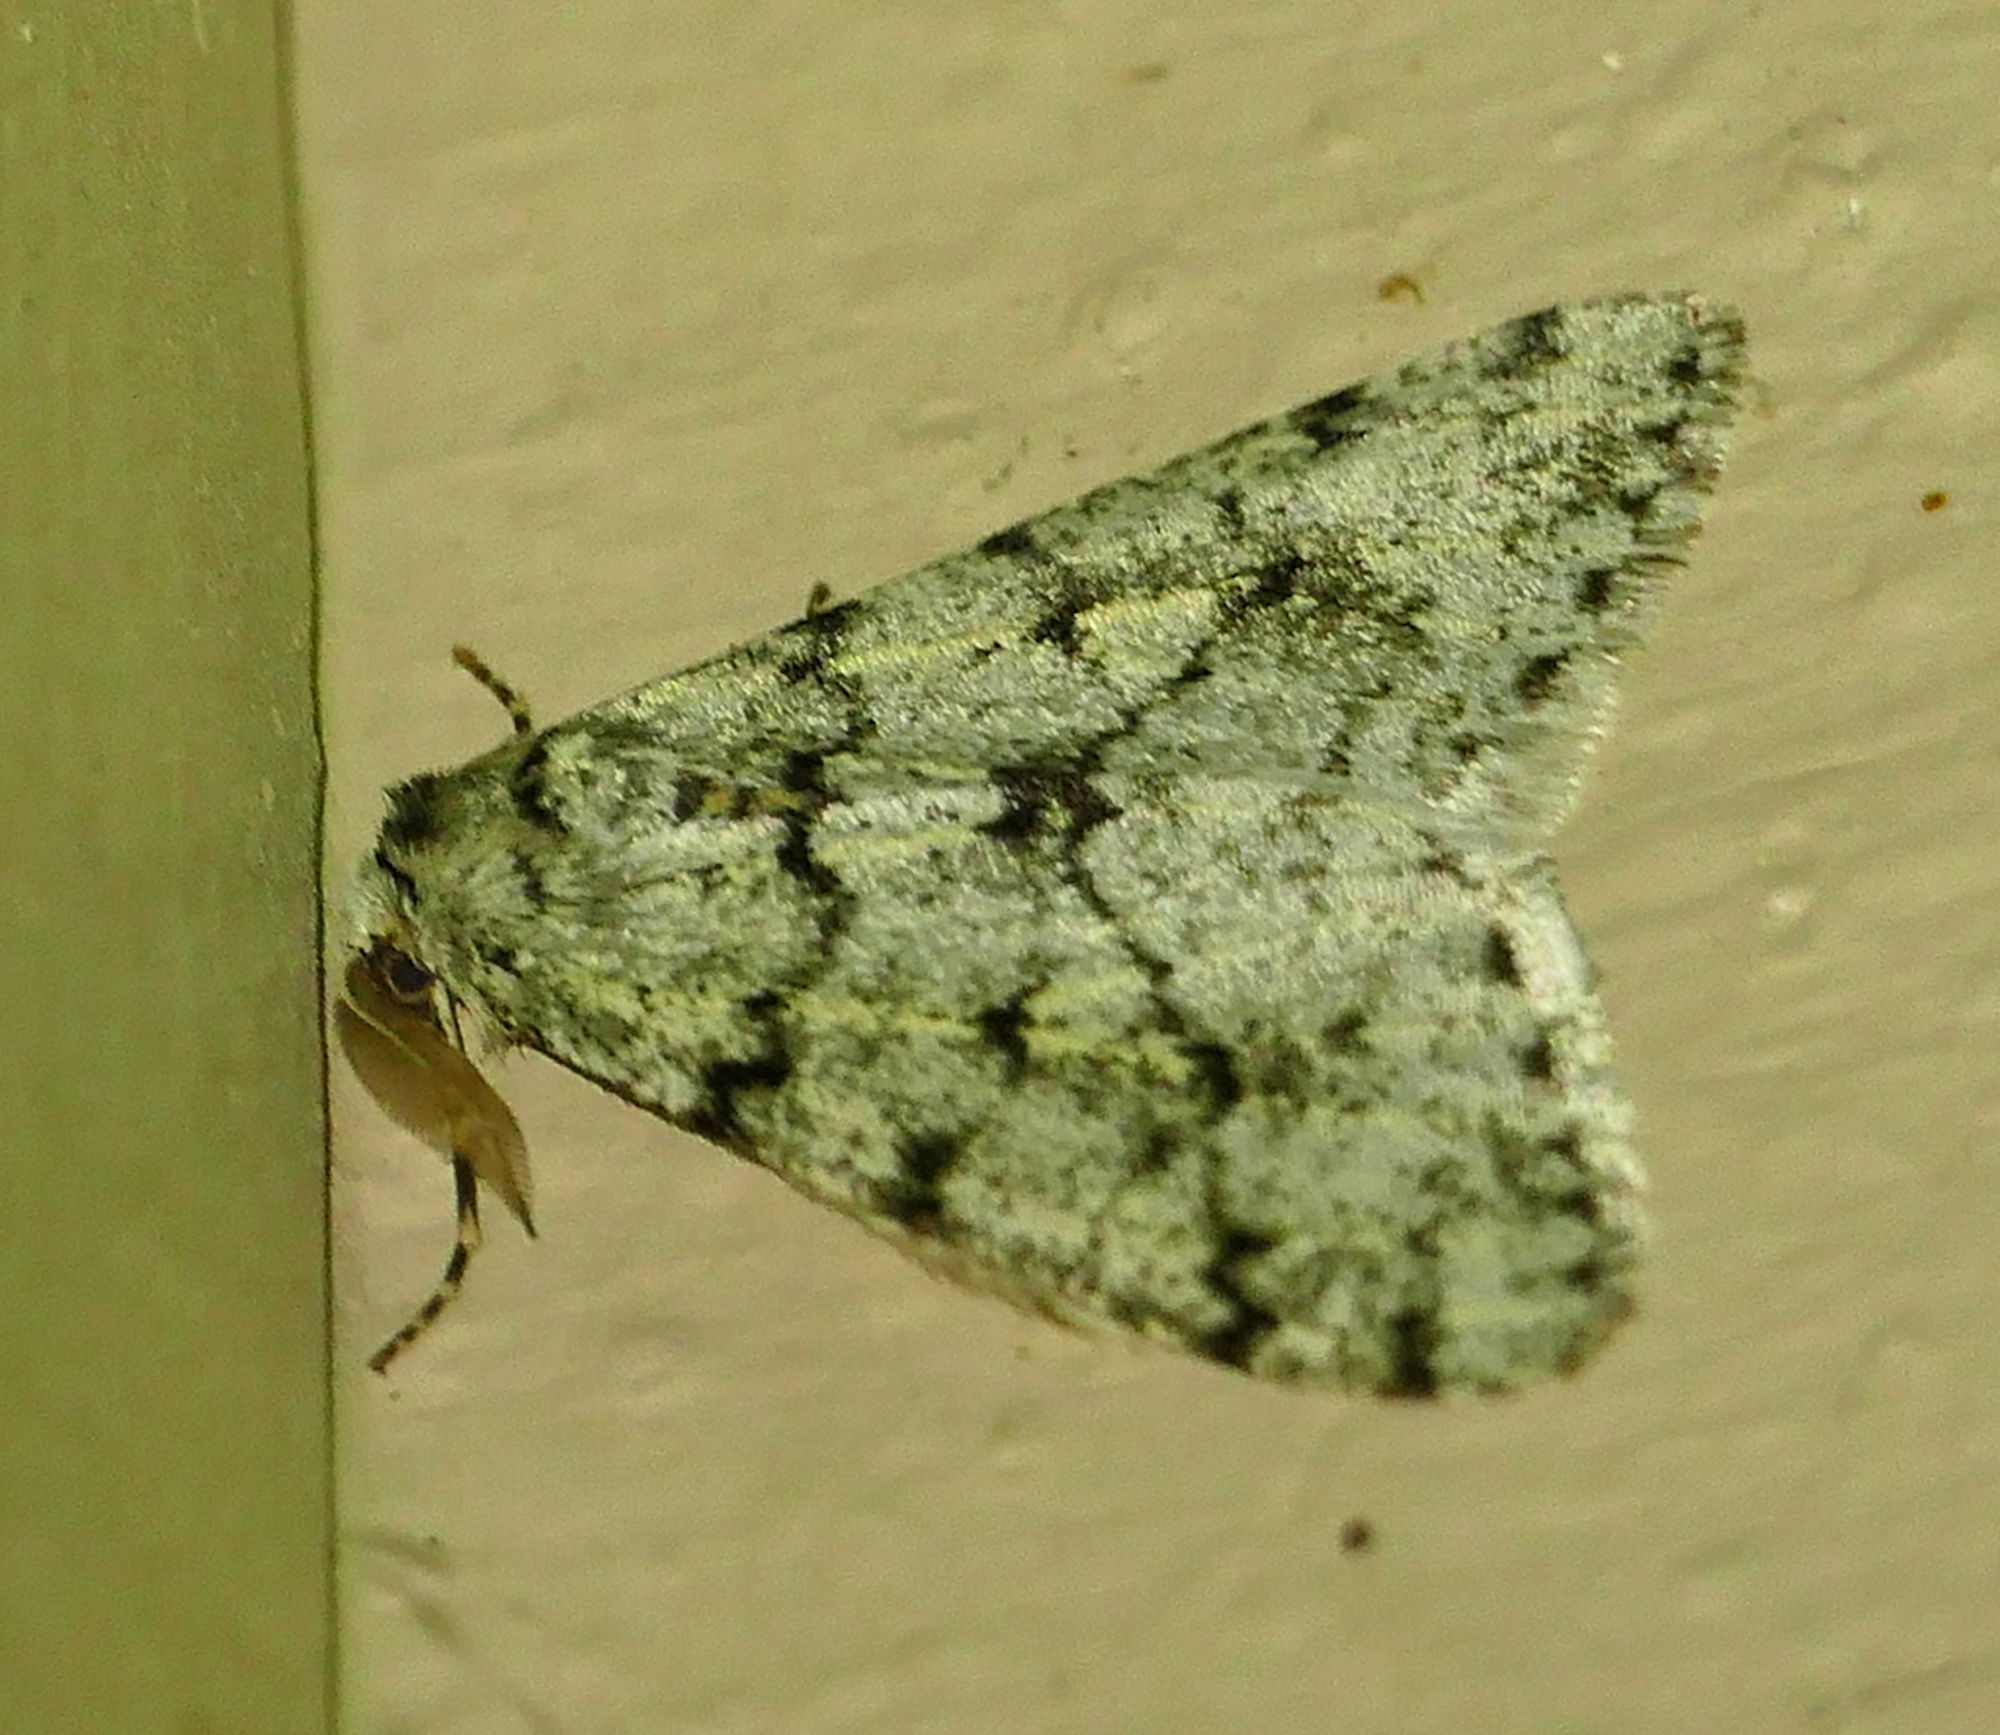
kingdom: Animalia
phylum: Arthropoda
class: Insecta
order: Lepidoptera
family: Geometridae
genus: Phigalia
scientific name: Phigalia strigataria
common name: Small phigalia
